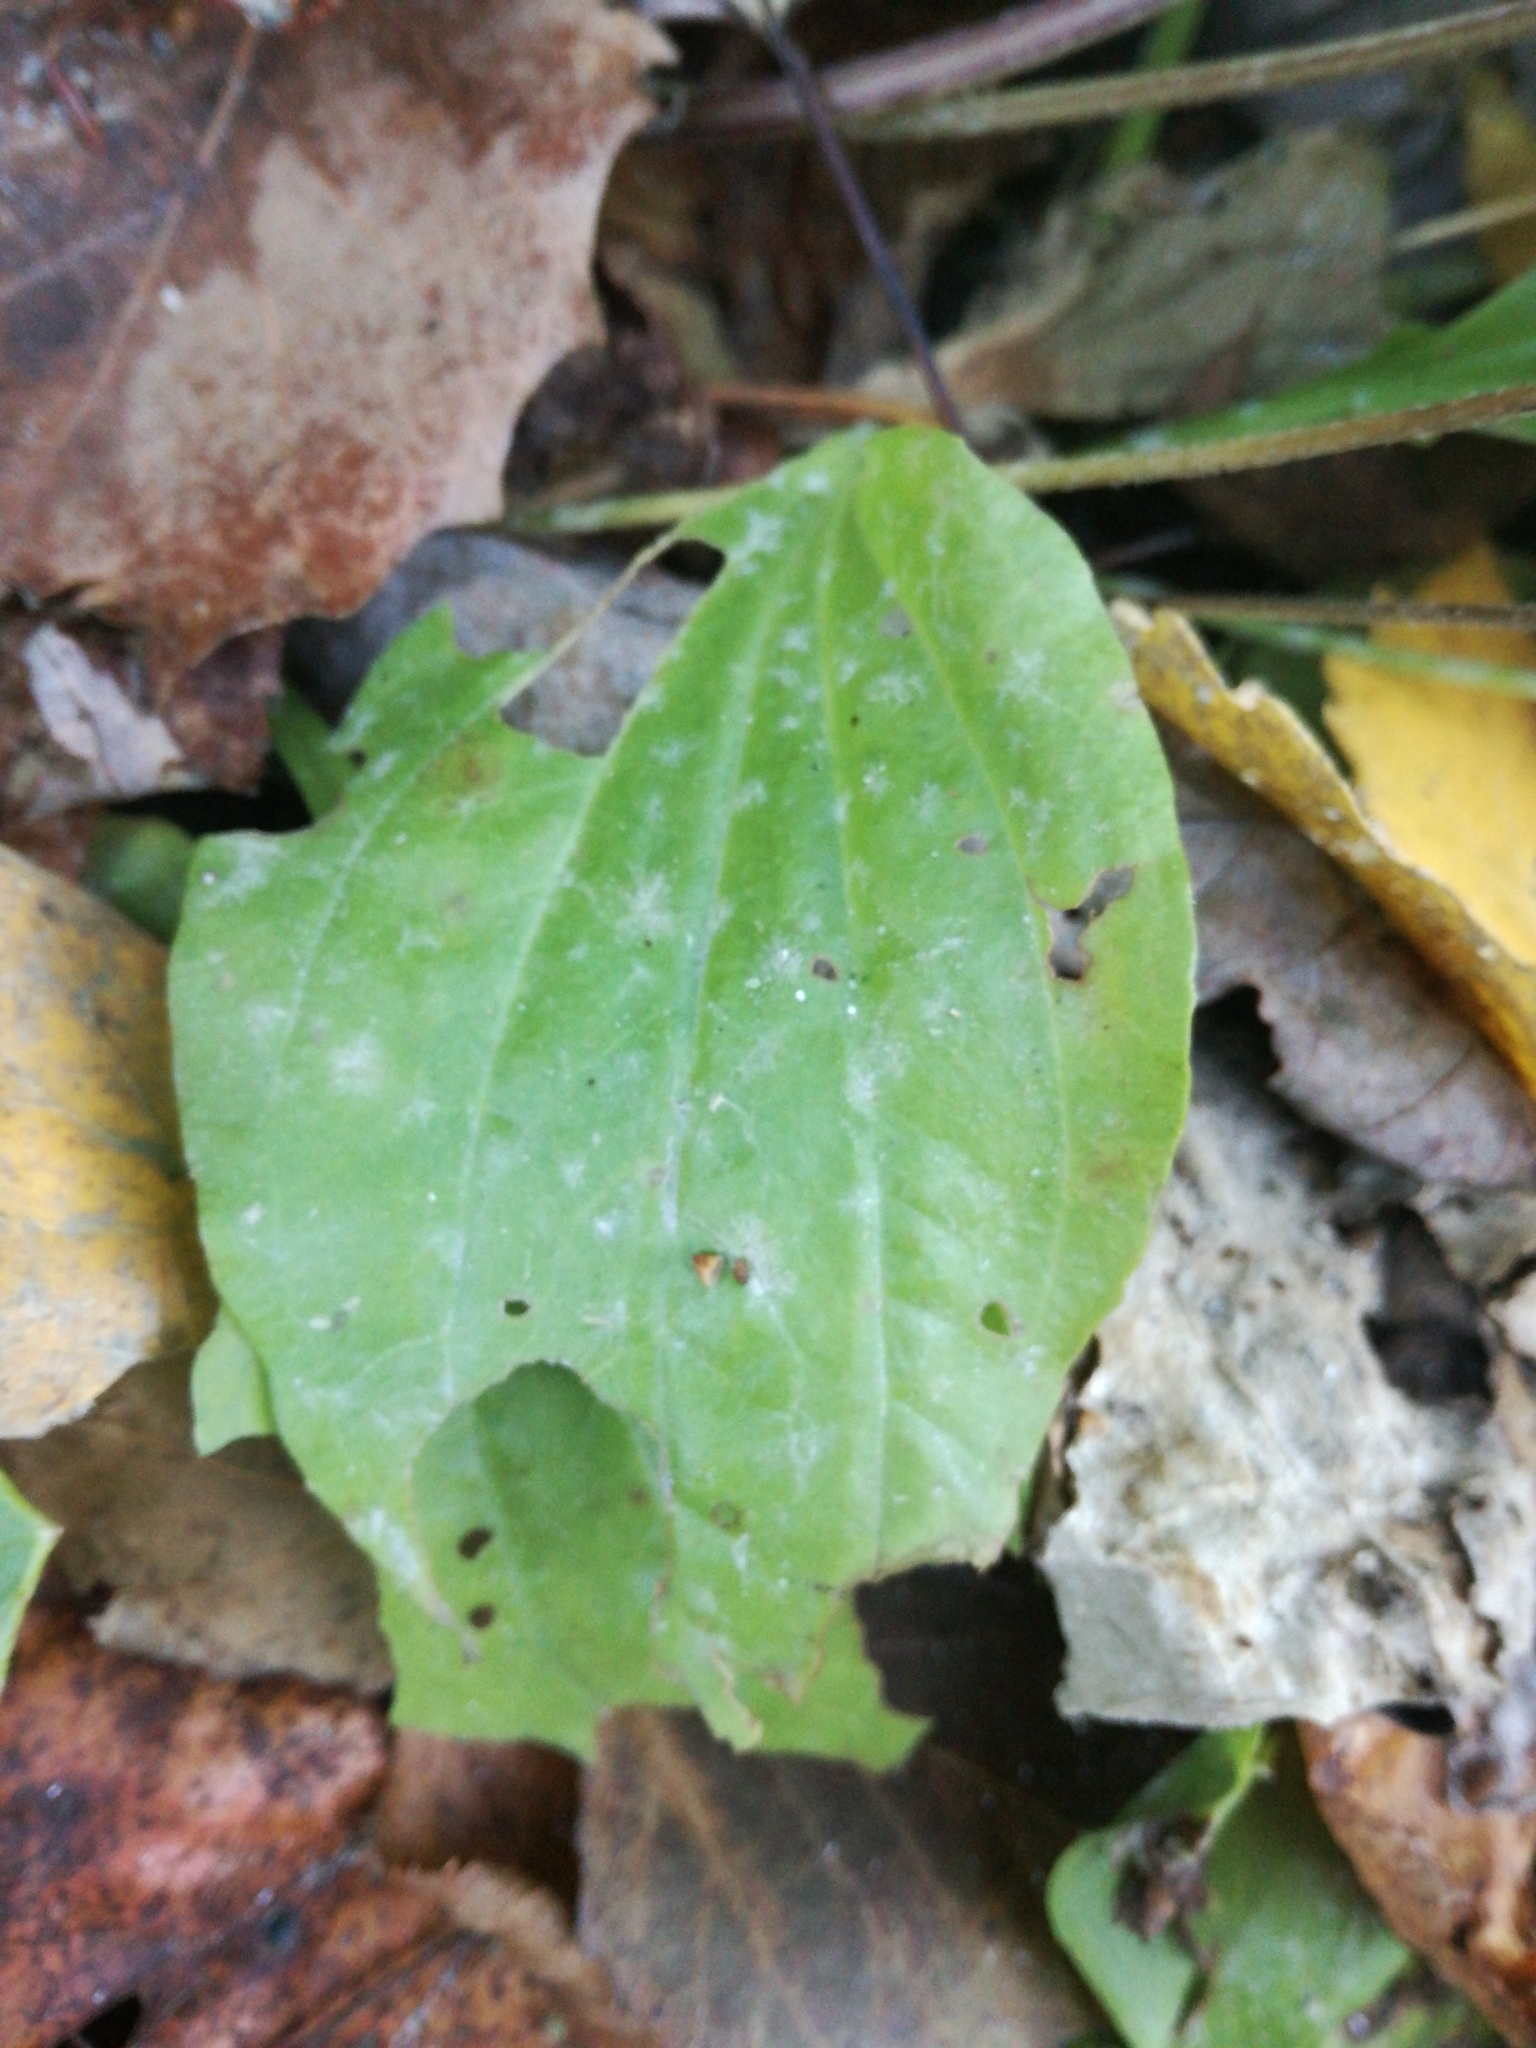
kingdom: Plantae
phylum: Tracheophyta
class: Magnoliopsida
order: Lamiales
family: Plantaginaceae
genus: Plantago
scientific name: Plantago major
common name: Common plantain
